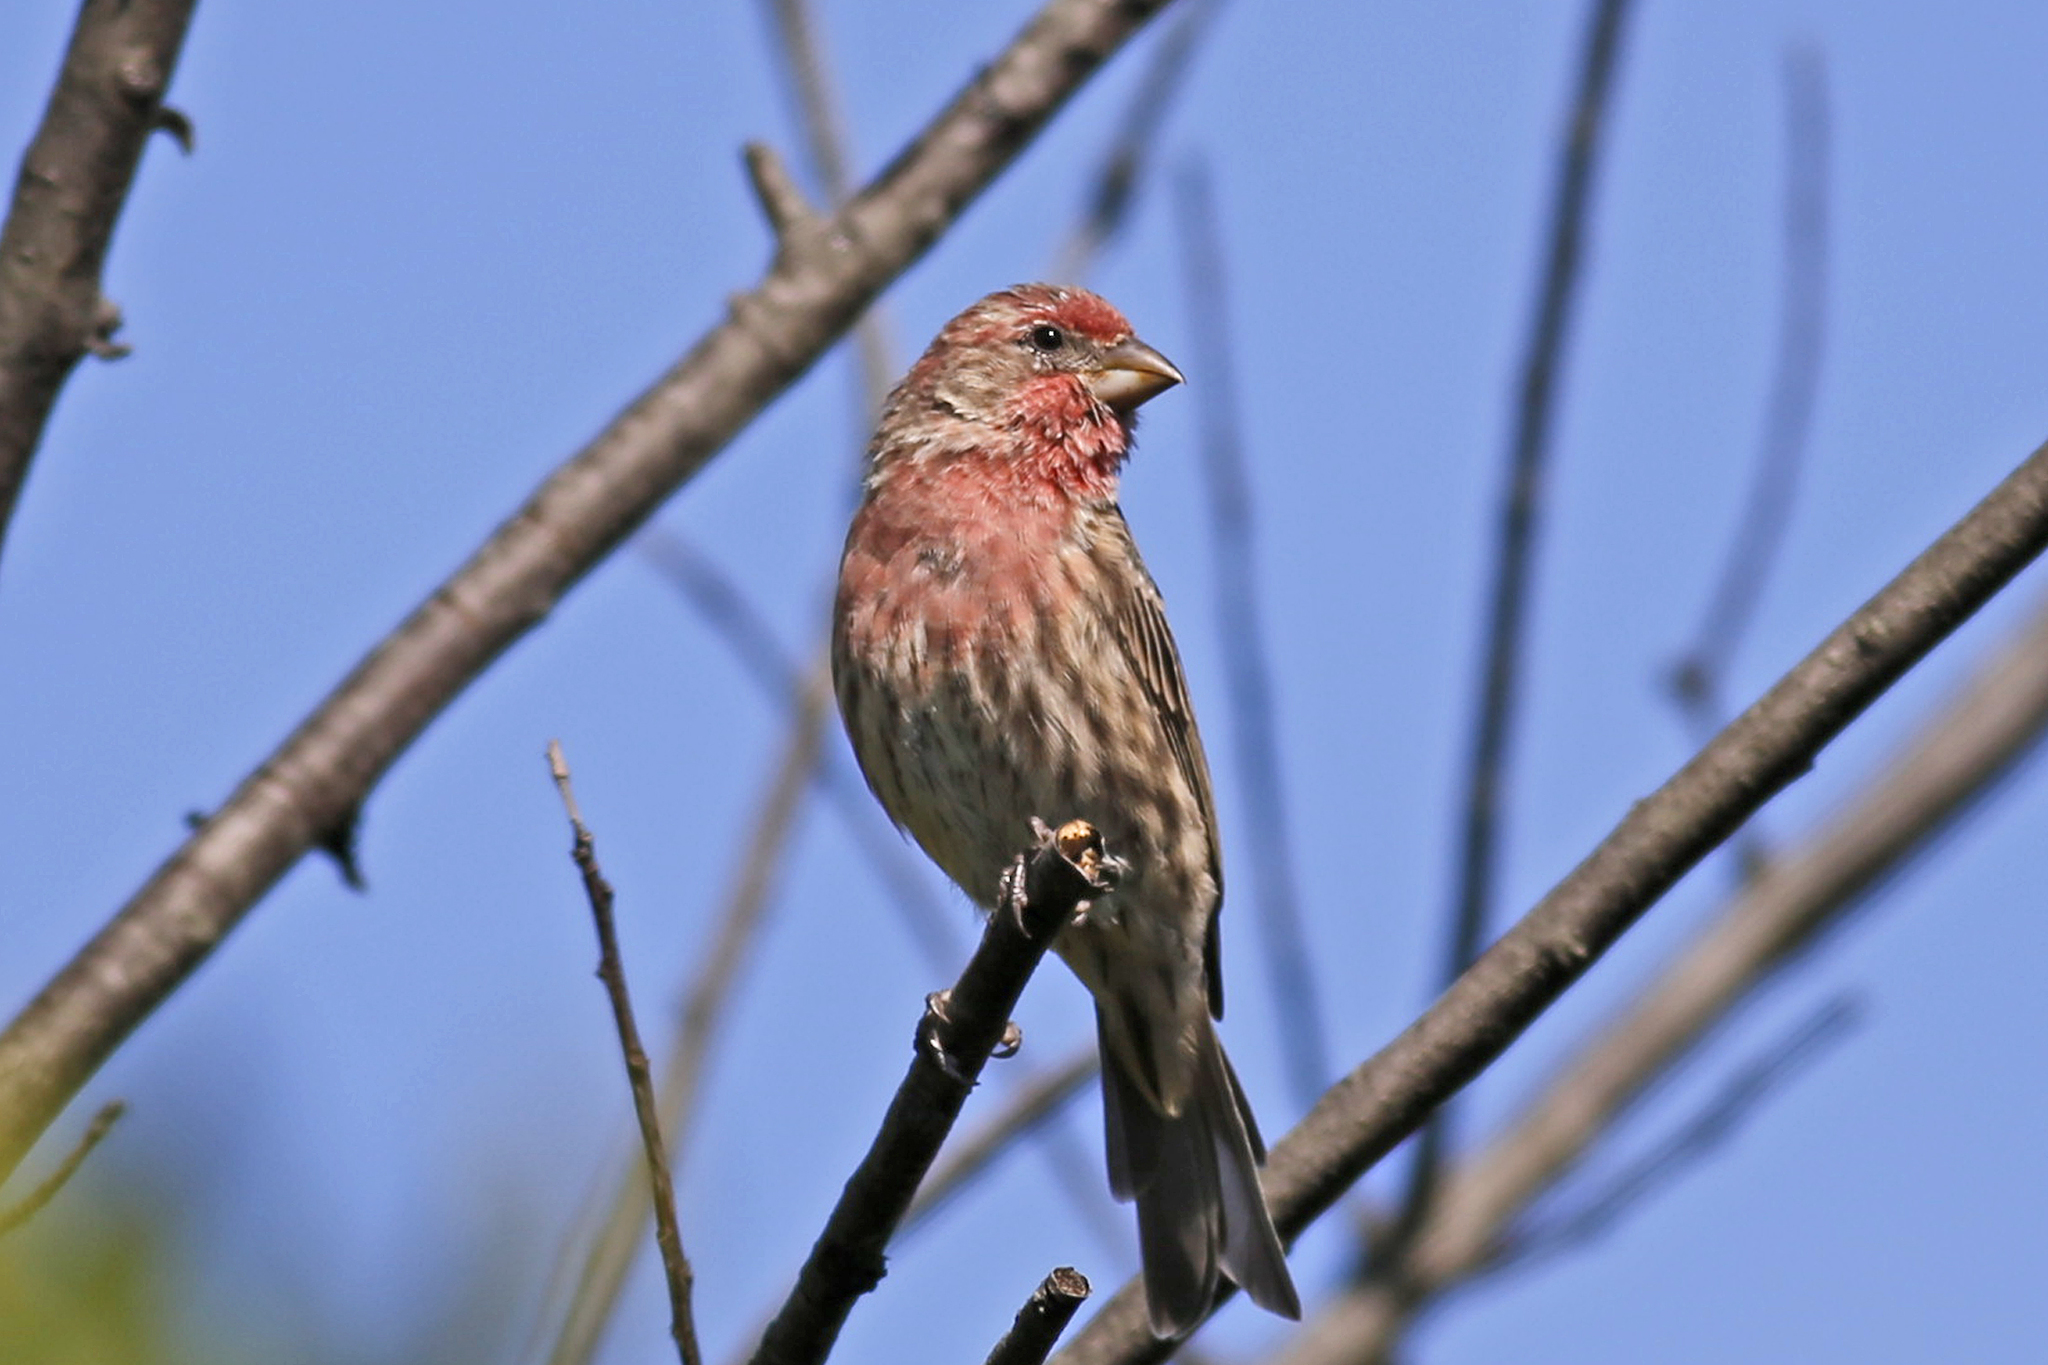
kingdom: Animalia
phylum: Chordata
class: Aves
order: Passeriformes
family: Fringillidae
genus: Haemorhous
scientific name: Haemorhous mexicanus
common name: House finch
